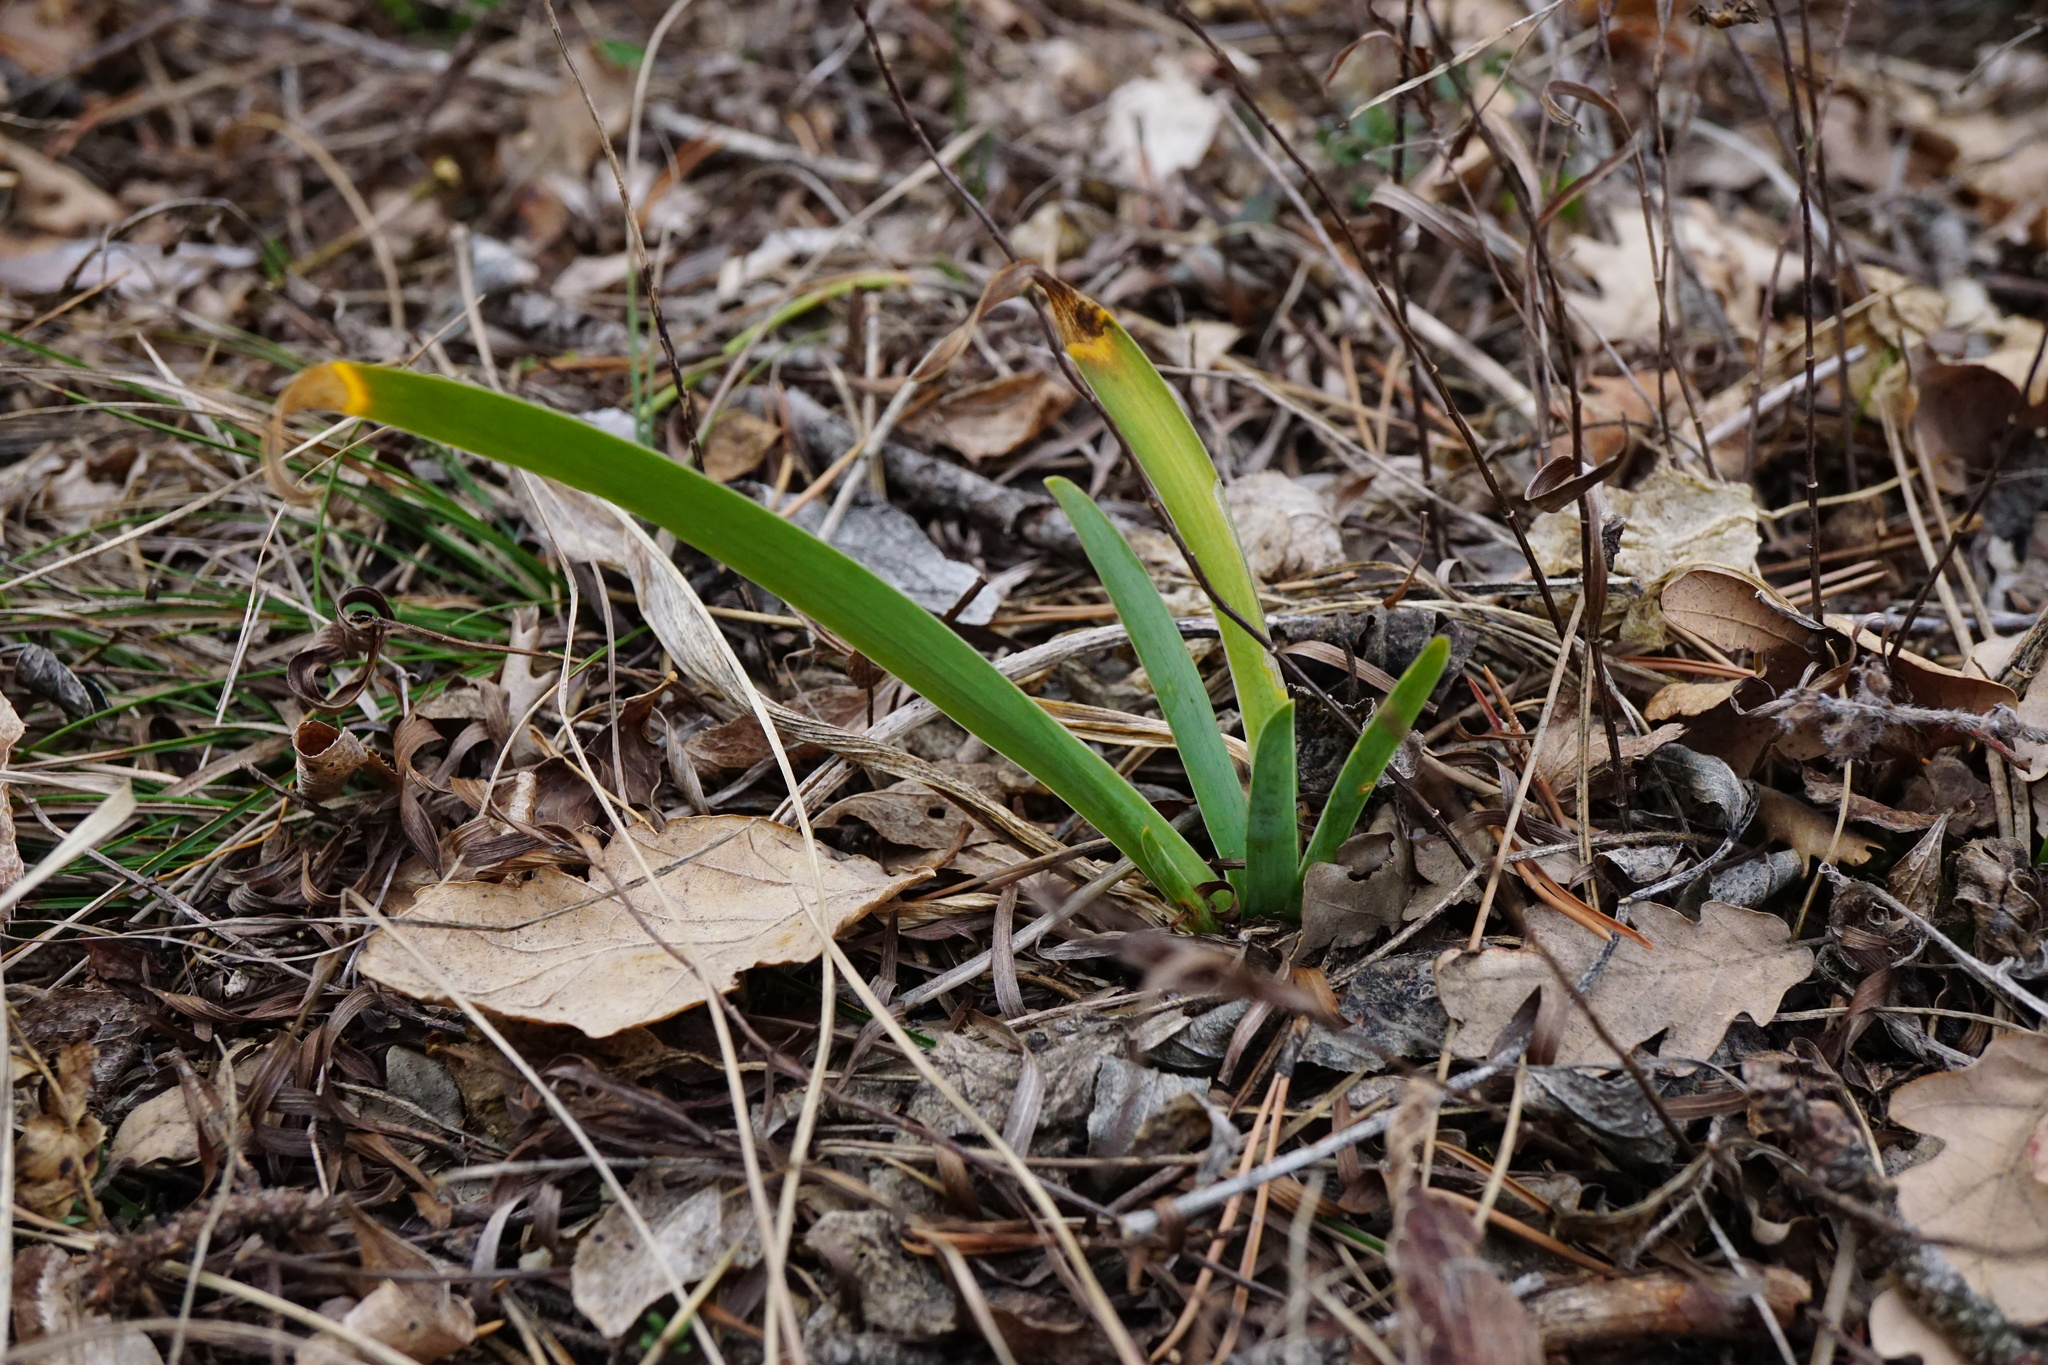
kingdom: Plantae
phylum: Tracheophyta
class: Liliopsida
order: Asparagales
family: Iridaceae
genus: Iris
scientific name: Iris pumila
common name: Dwarf iris
